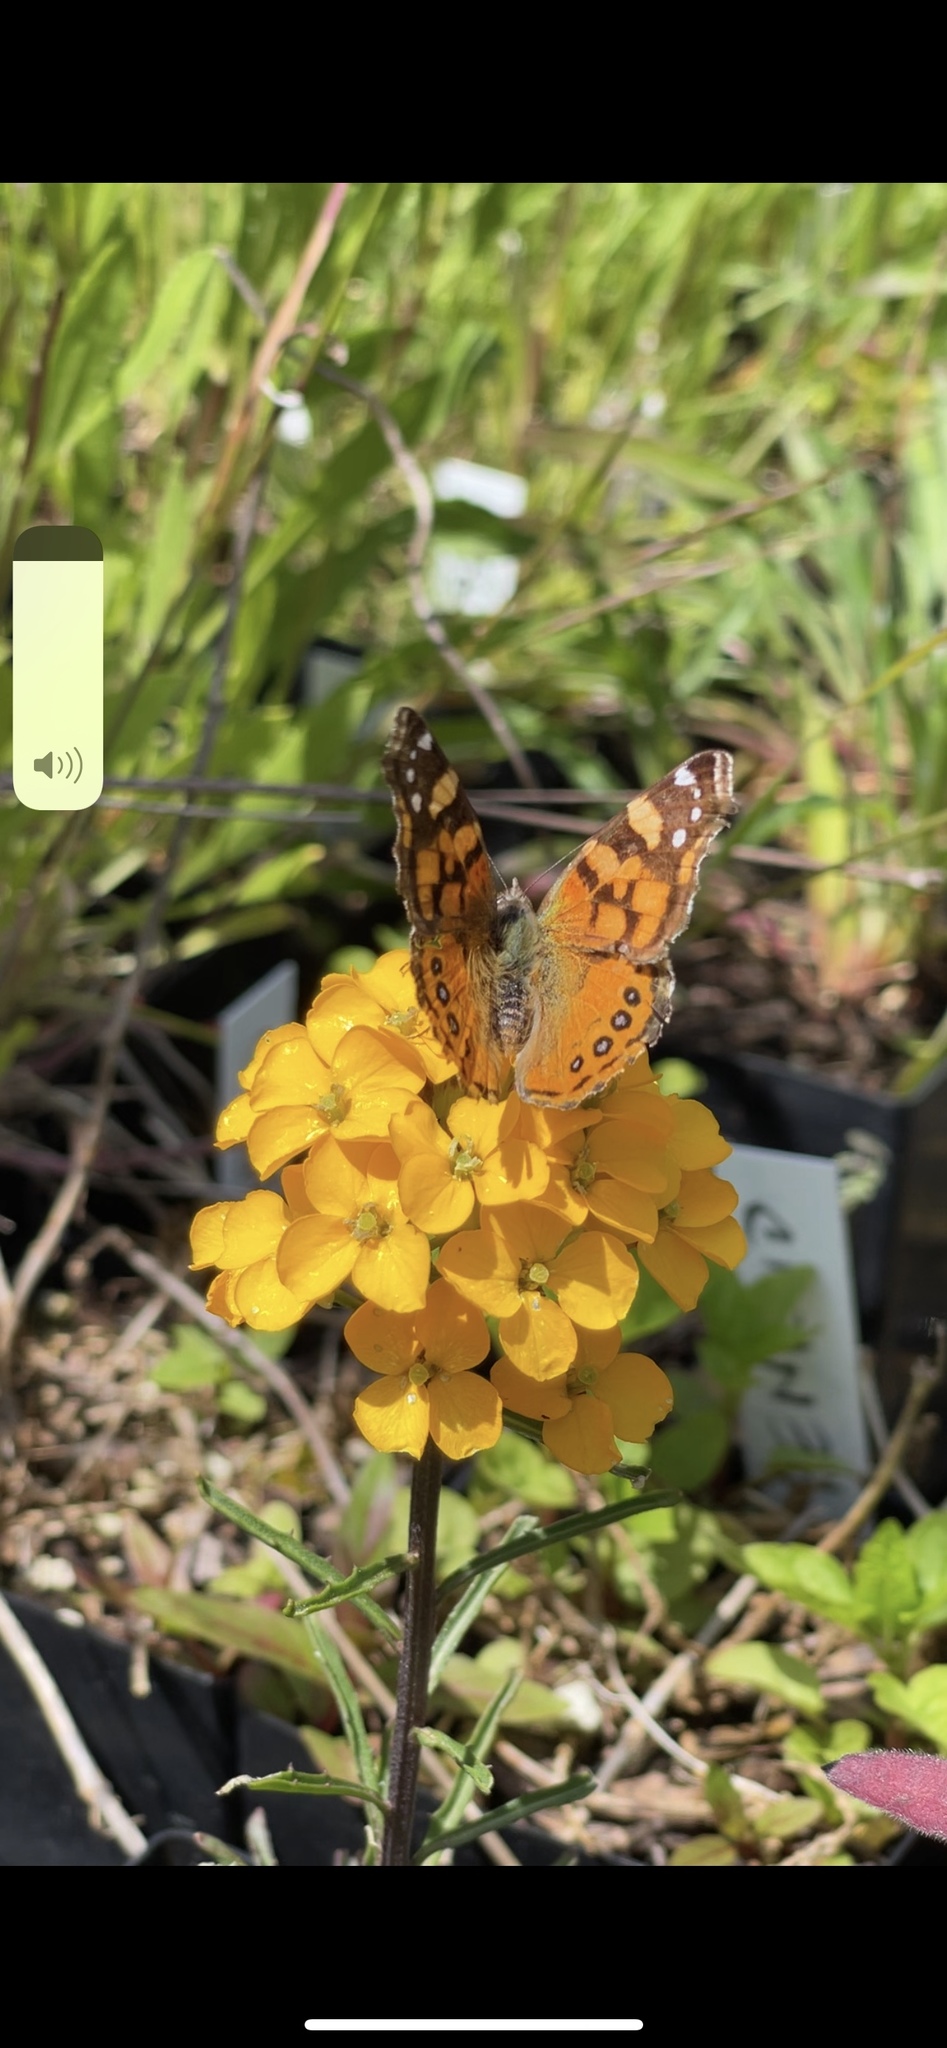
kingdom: Animalia
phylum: Arthropoda
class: Insecta
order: Lepidoptera
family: Nymphalidae
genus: Vanessa
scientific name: Vanessa annabella
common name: West coast lady
